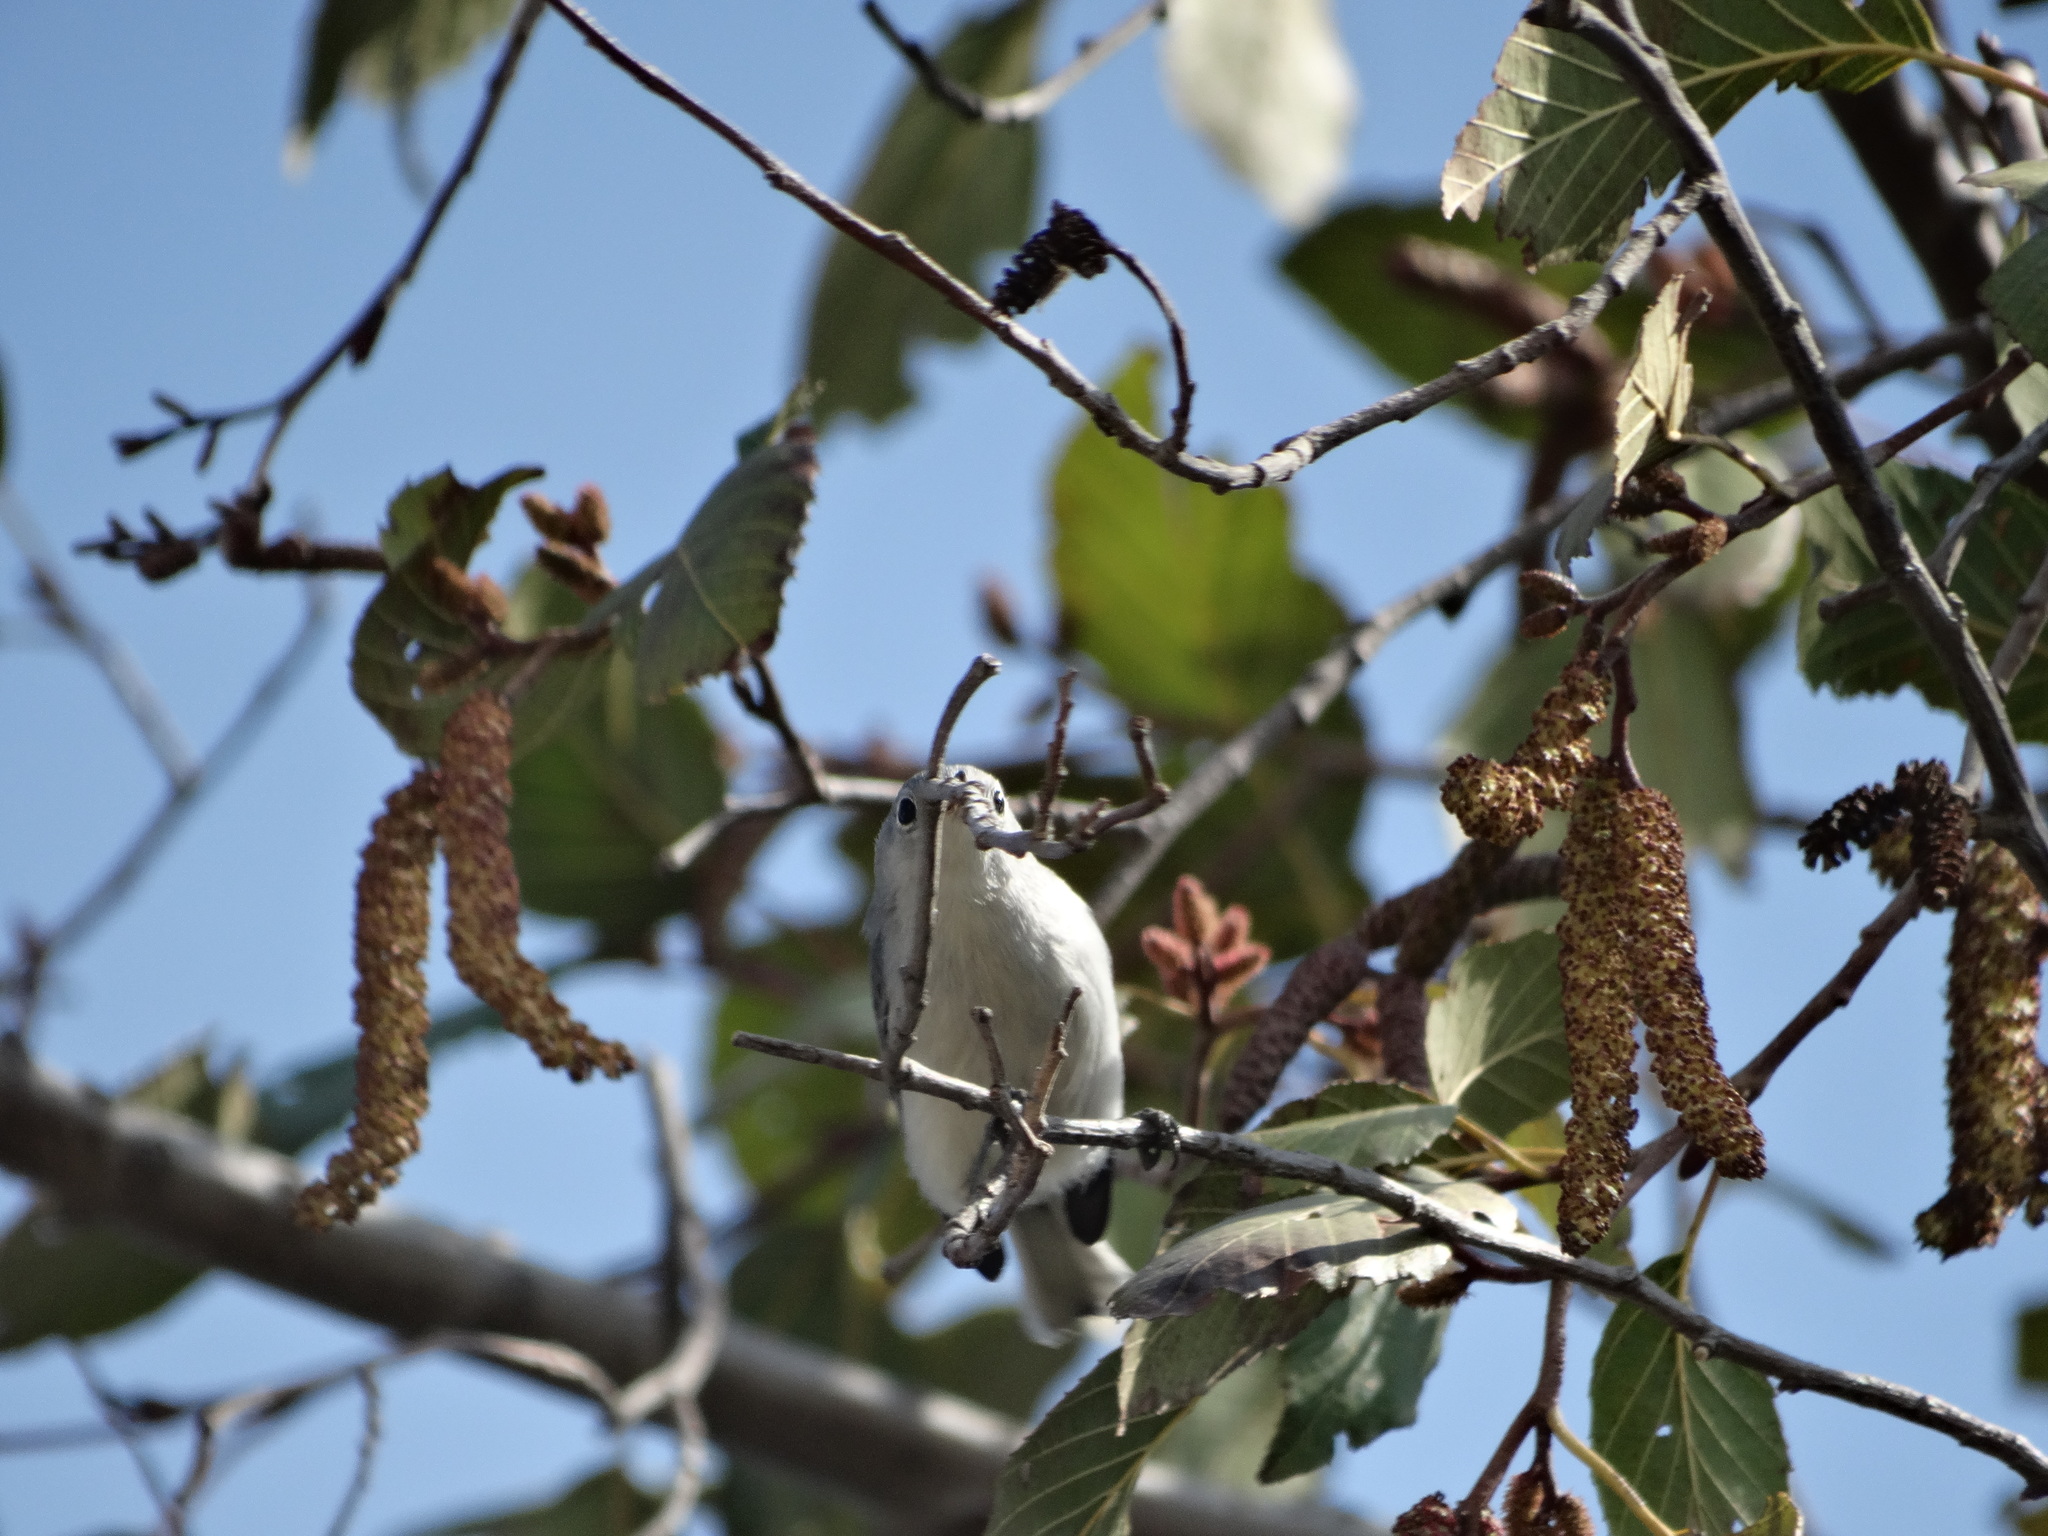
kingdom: Animalia
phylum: Chordata
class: Aves
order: Passeriformes
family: Polioptilidae
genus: Polioptila
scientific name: Polioptila caerulea
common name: Blue-gray gnatcatcher
